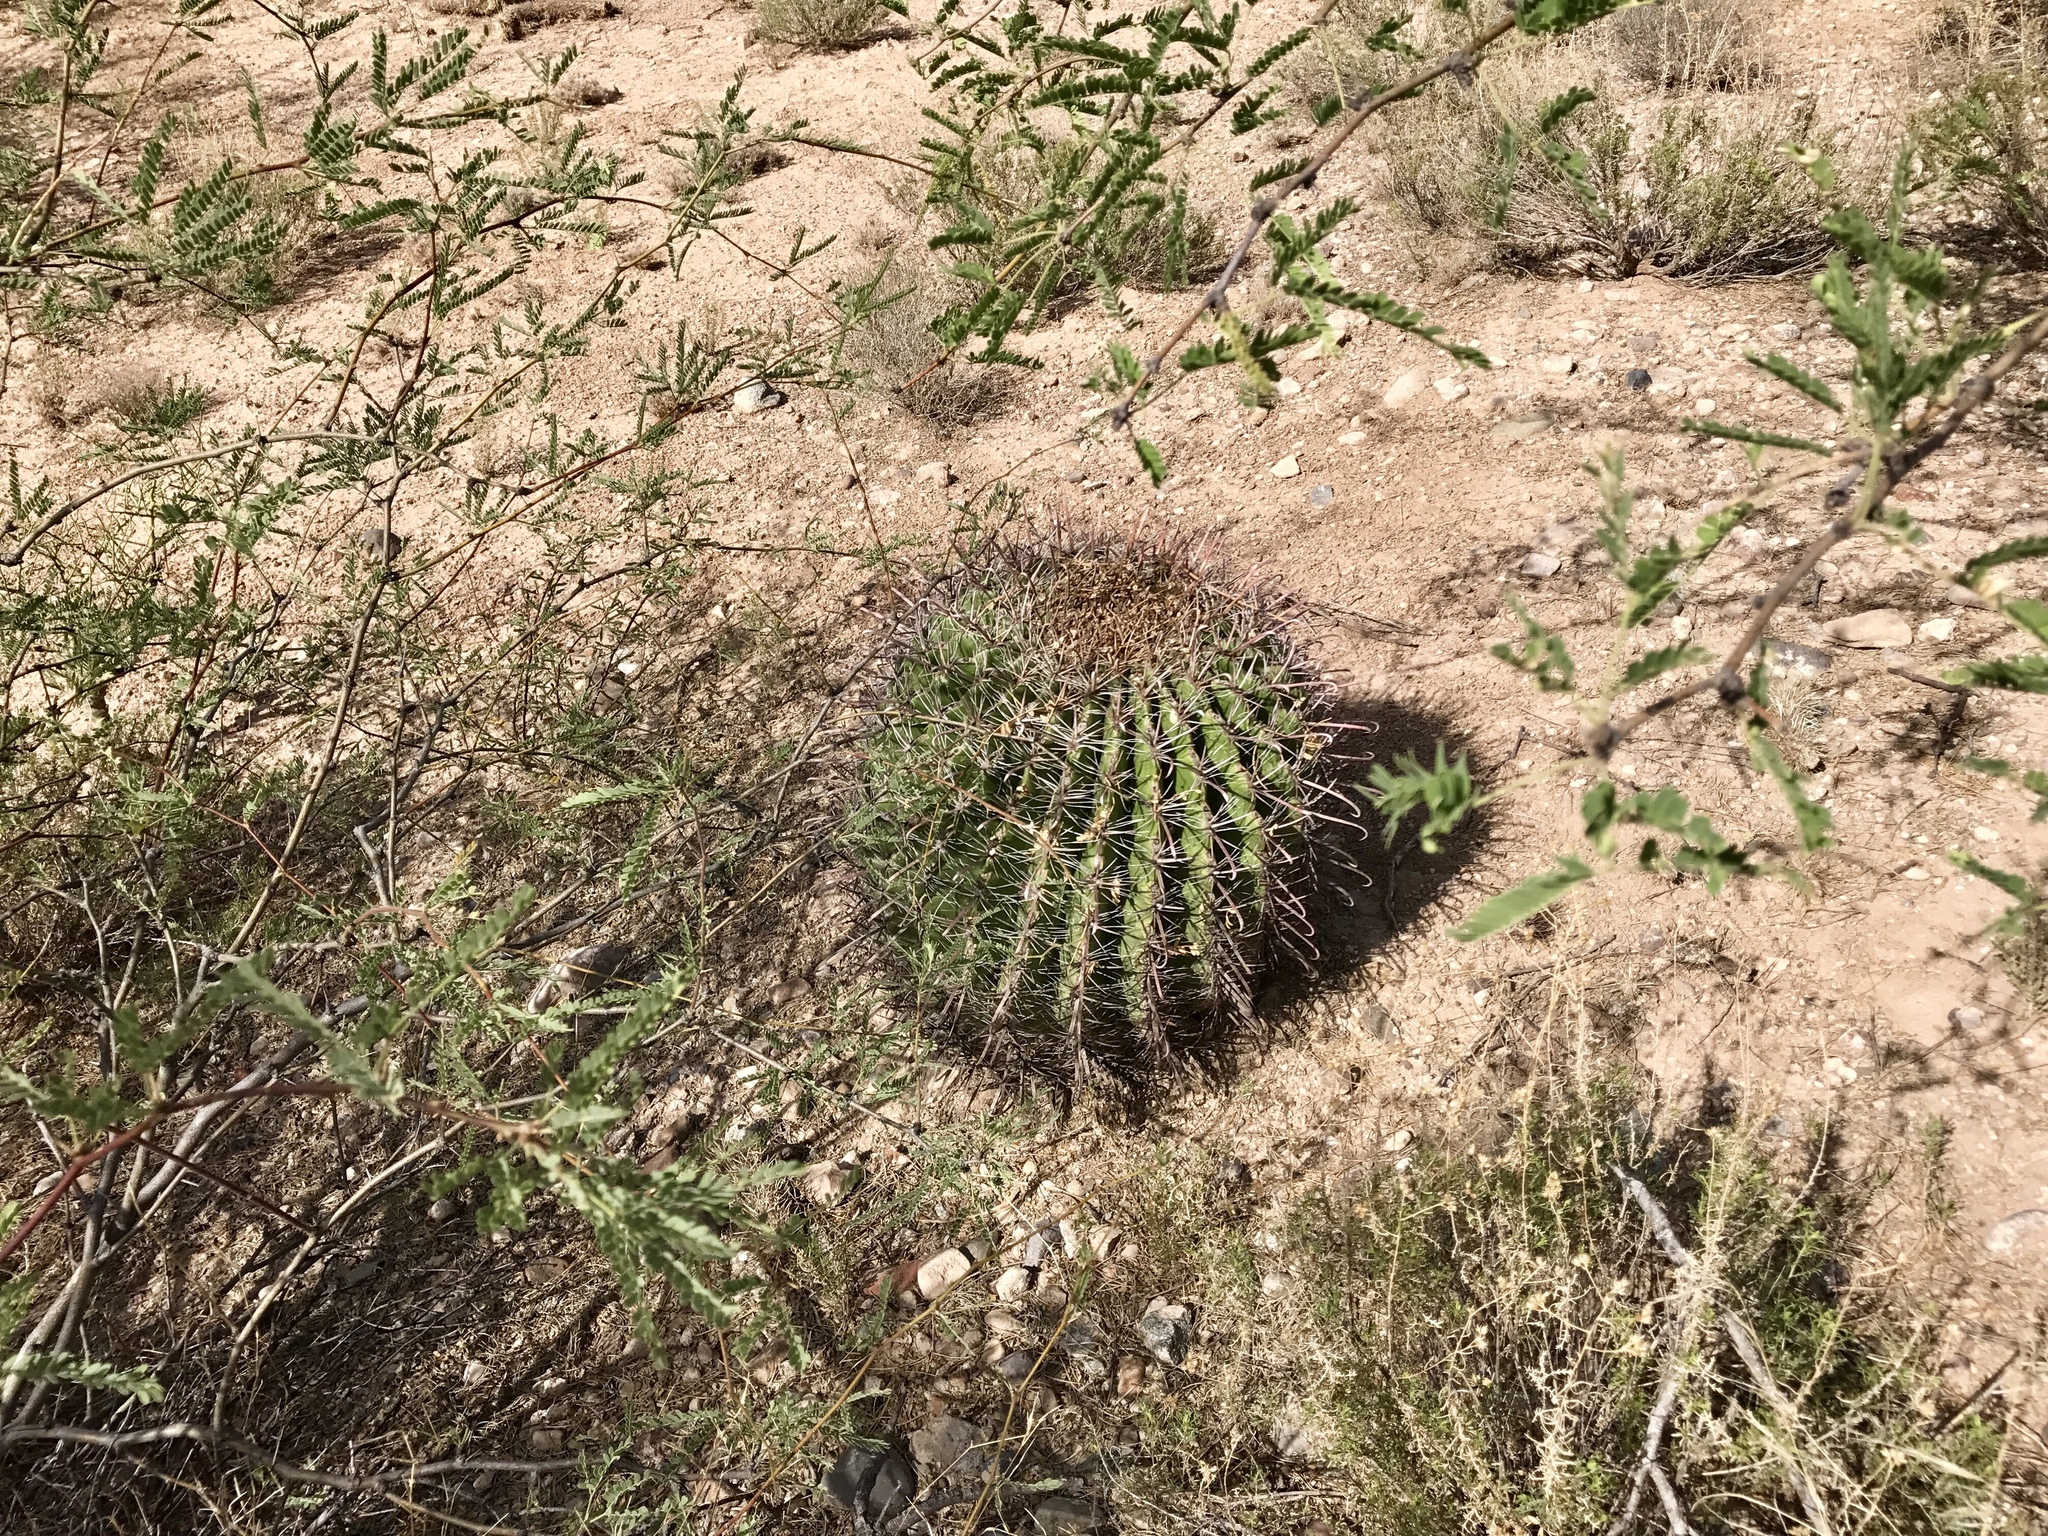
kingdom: Plantae
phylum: Tracheophyta
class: Magnoliopsida
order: Caryophyllales
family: Cactaceae
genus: Ferocactus
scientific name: Ferocactus wislizeni
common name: Candy barrel cactus
